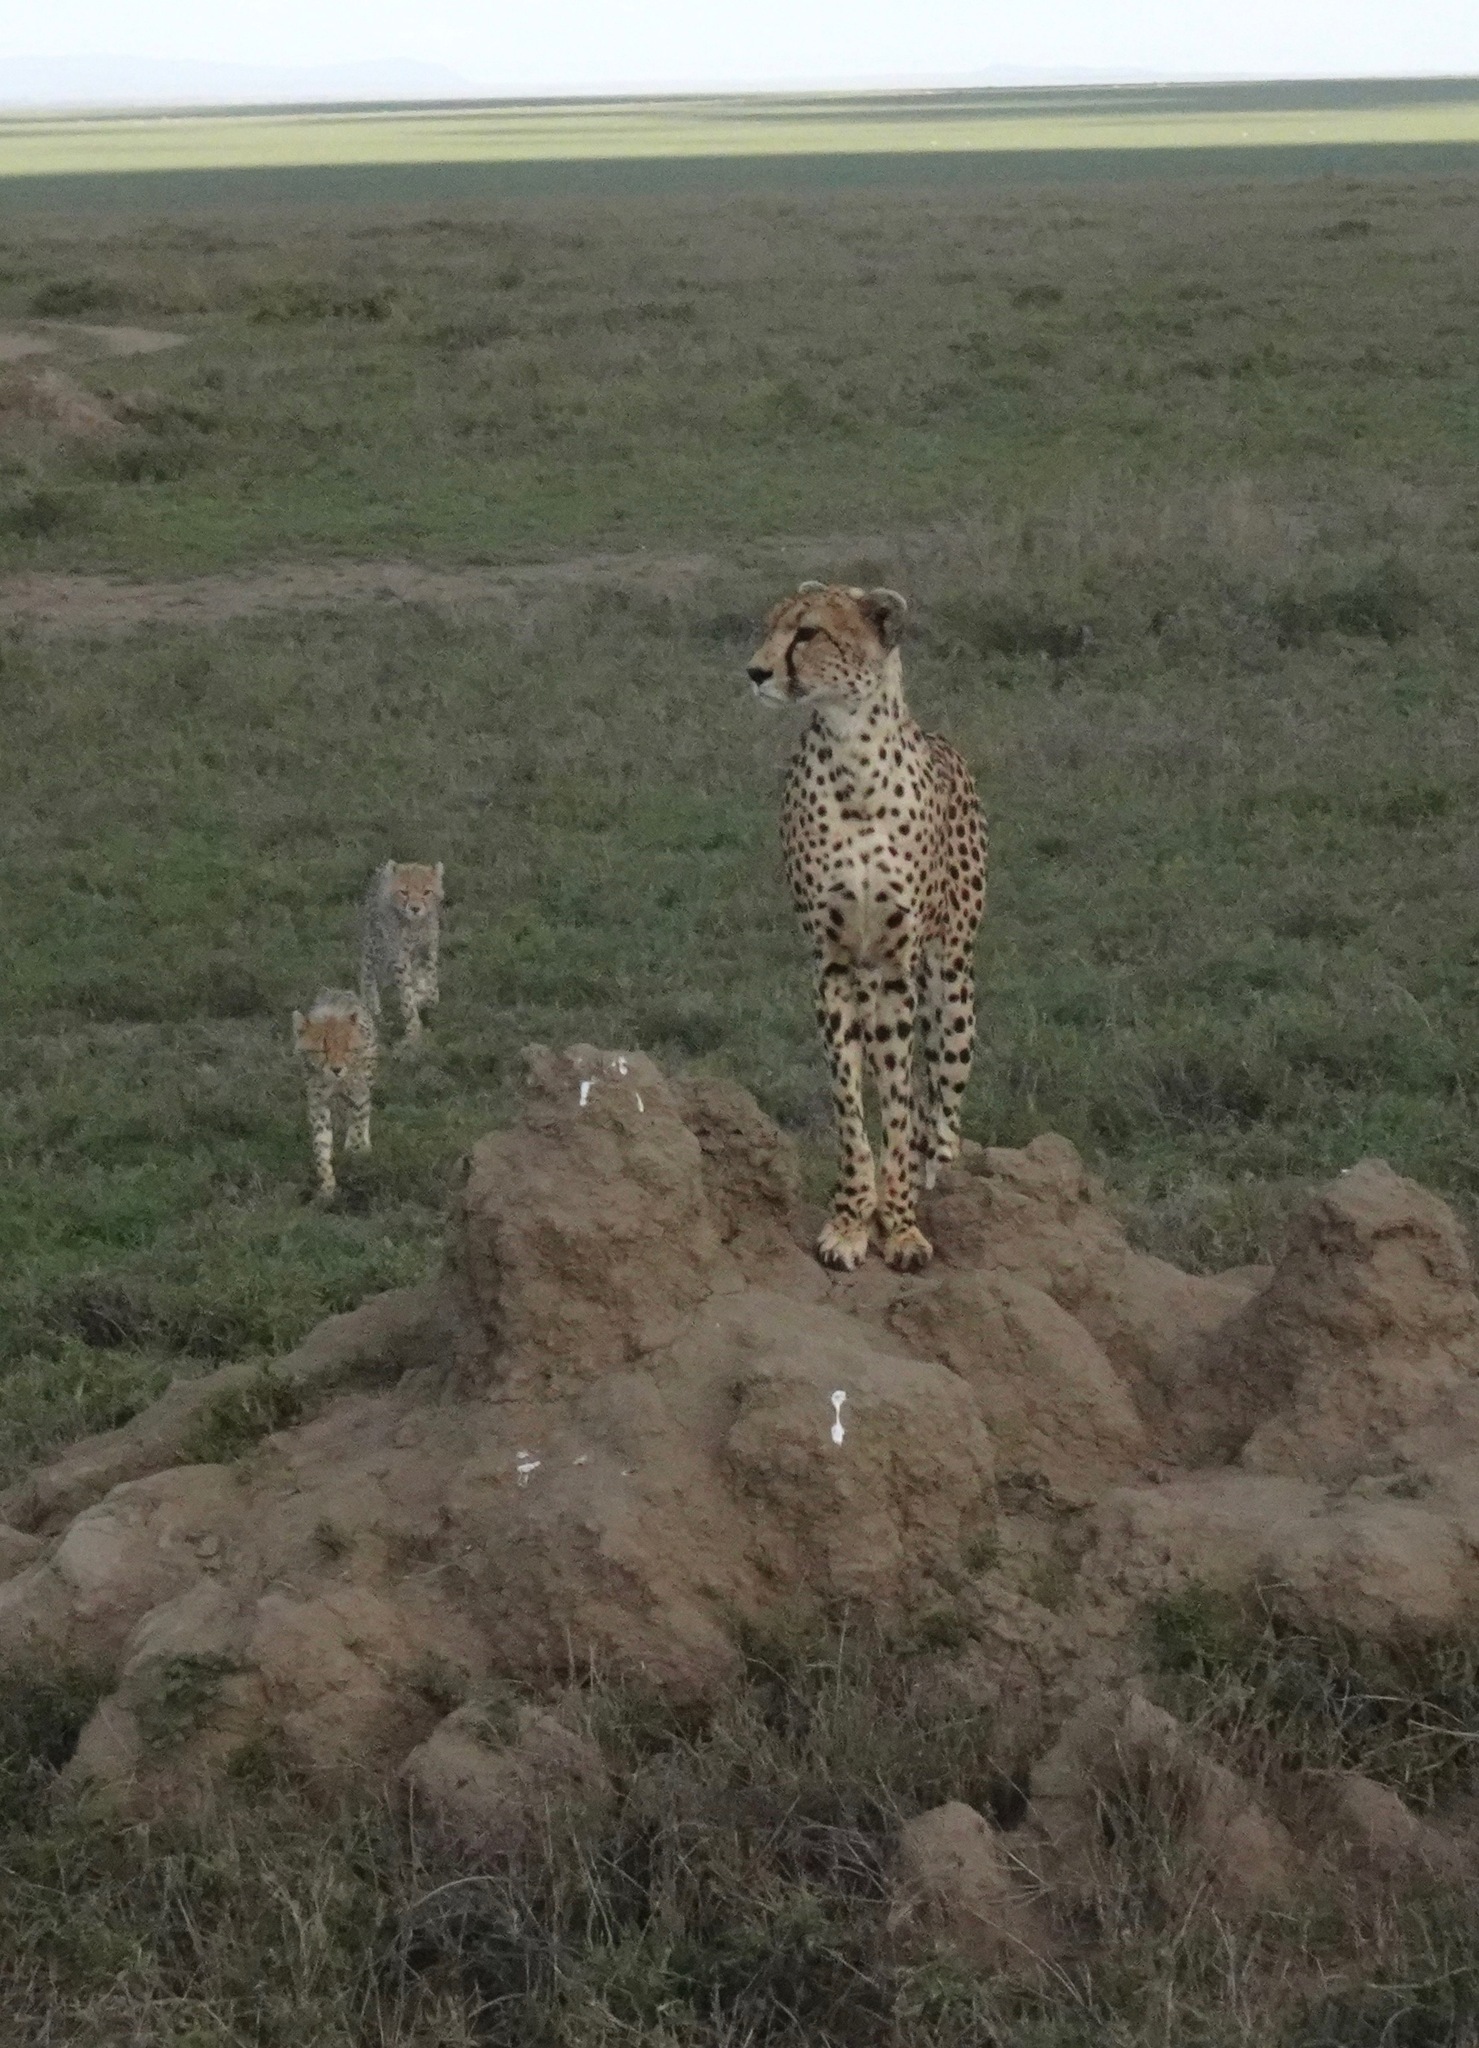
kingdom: Animalia
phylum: Chordata
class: Mammalia
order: Carnivora
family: Felidae
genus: Acinonyx
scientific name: Acinonyx jubatus
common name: Cheetah
